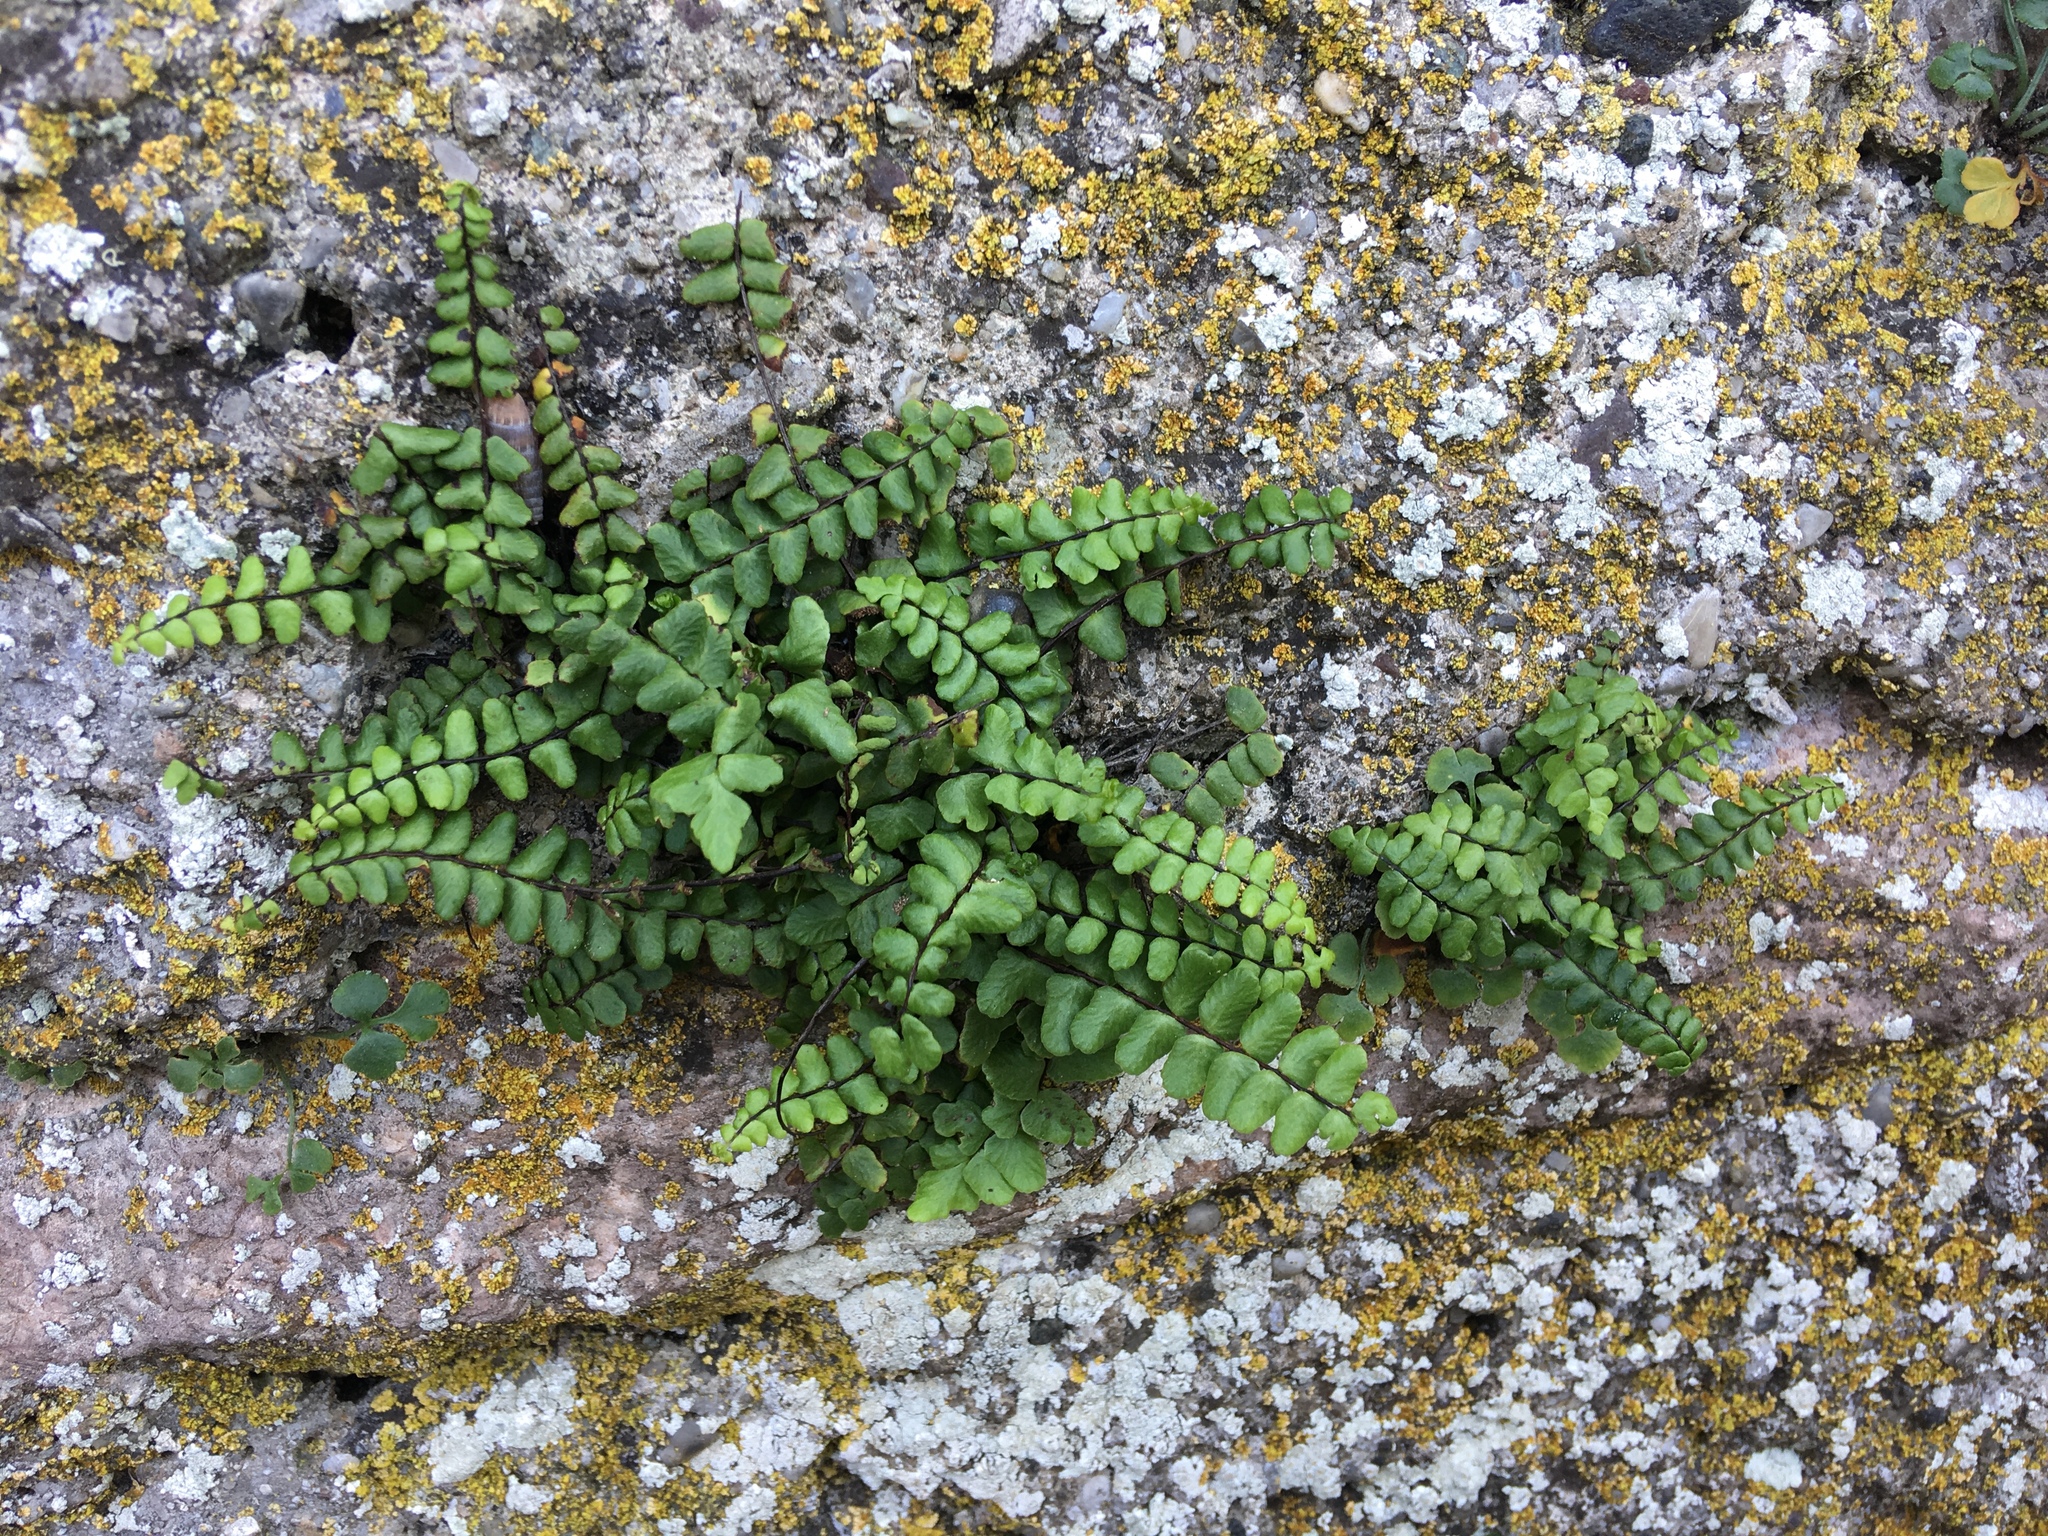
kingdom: Plantae
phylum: Tracheophyta
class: Polypodiopsida
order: Polypodiales
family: Aspleniaceae
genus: Asplenium
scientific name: Asplenium trichomanes
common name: Maidenhair spleenwort
